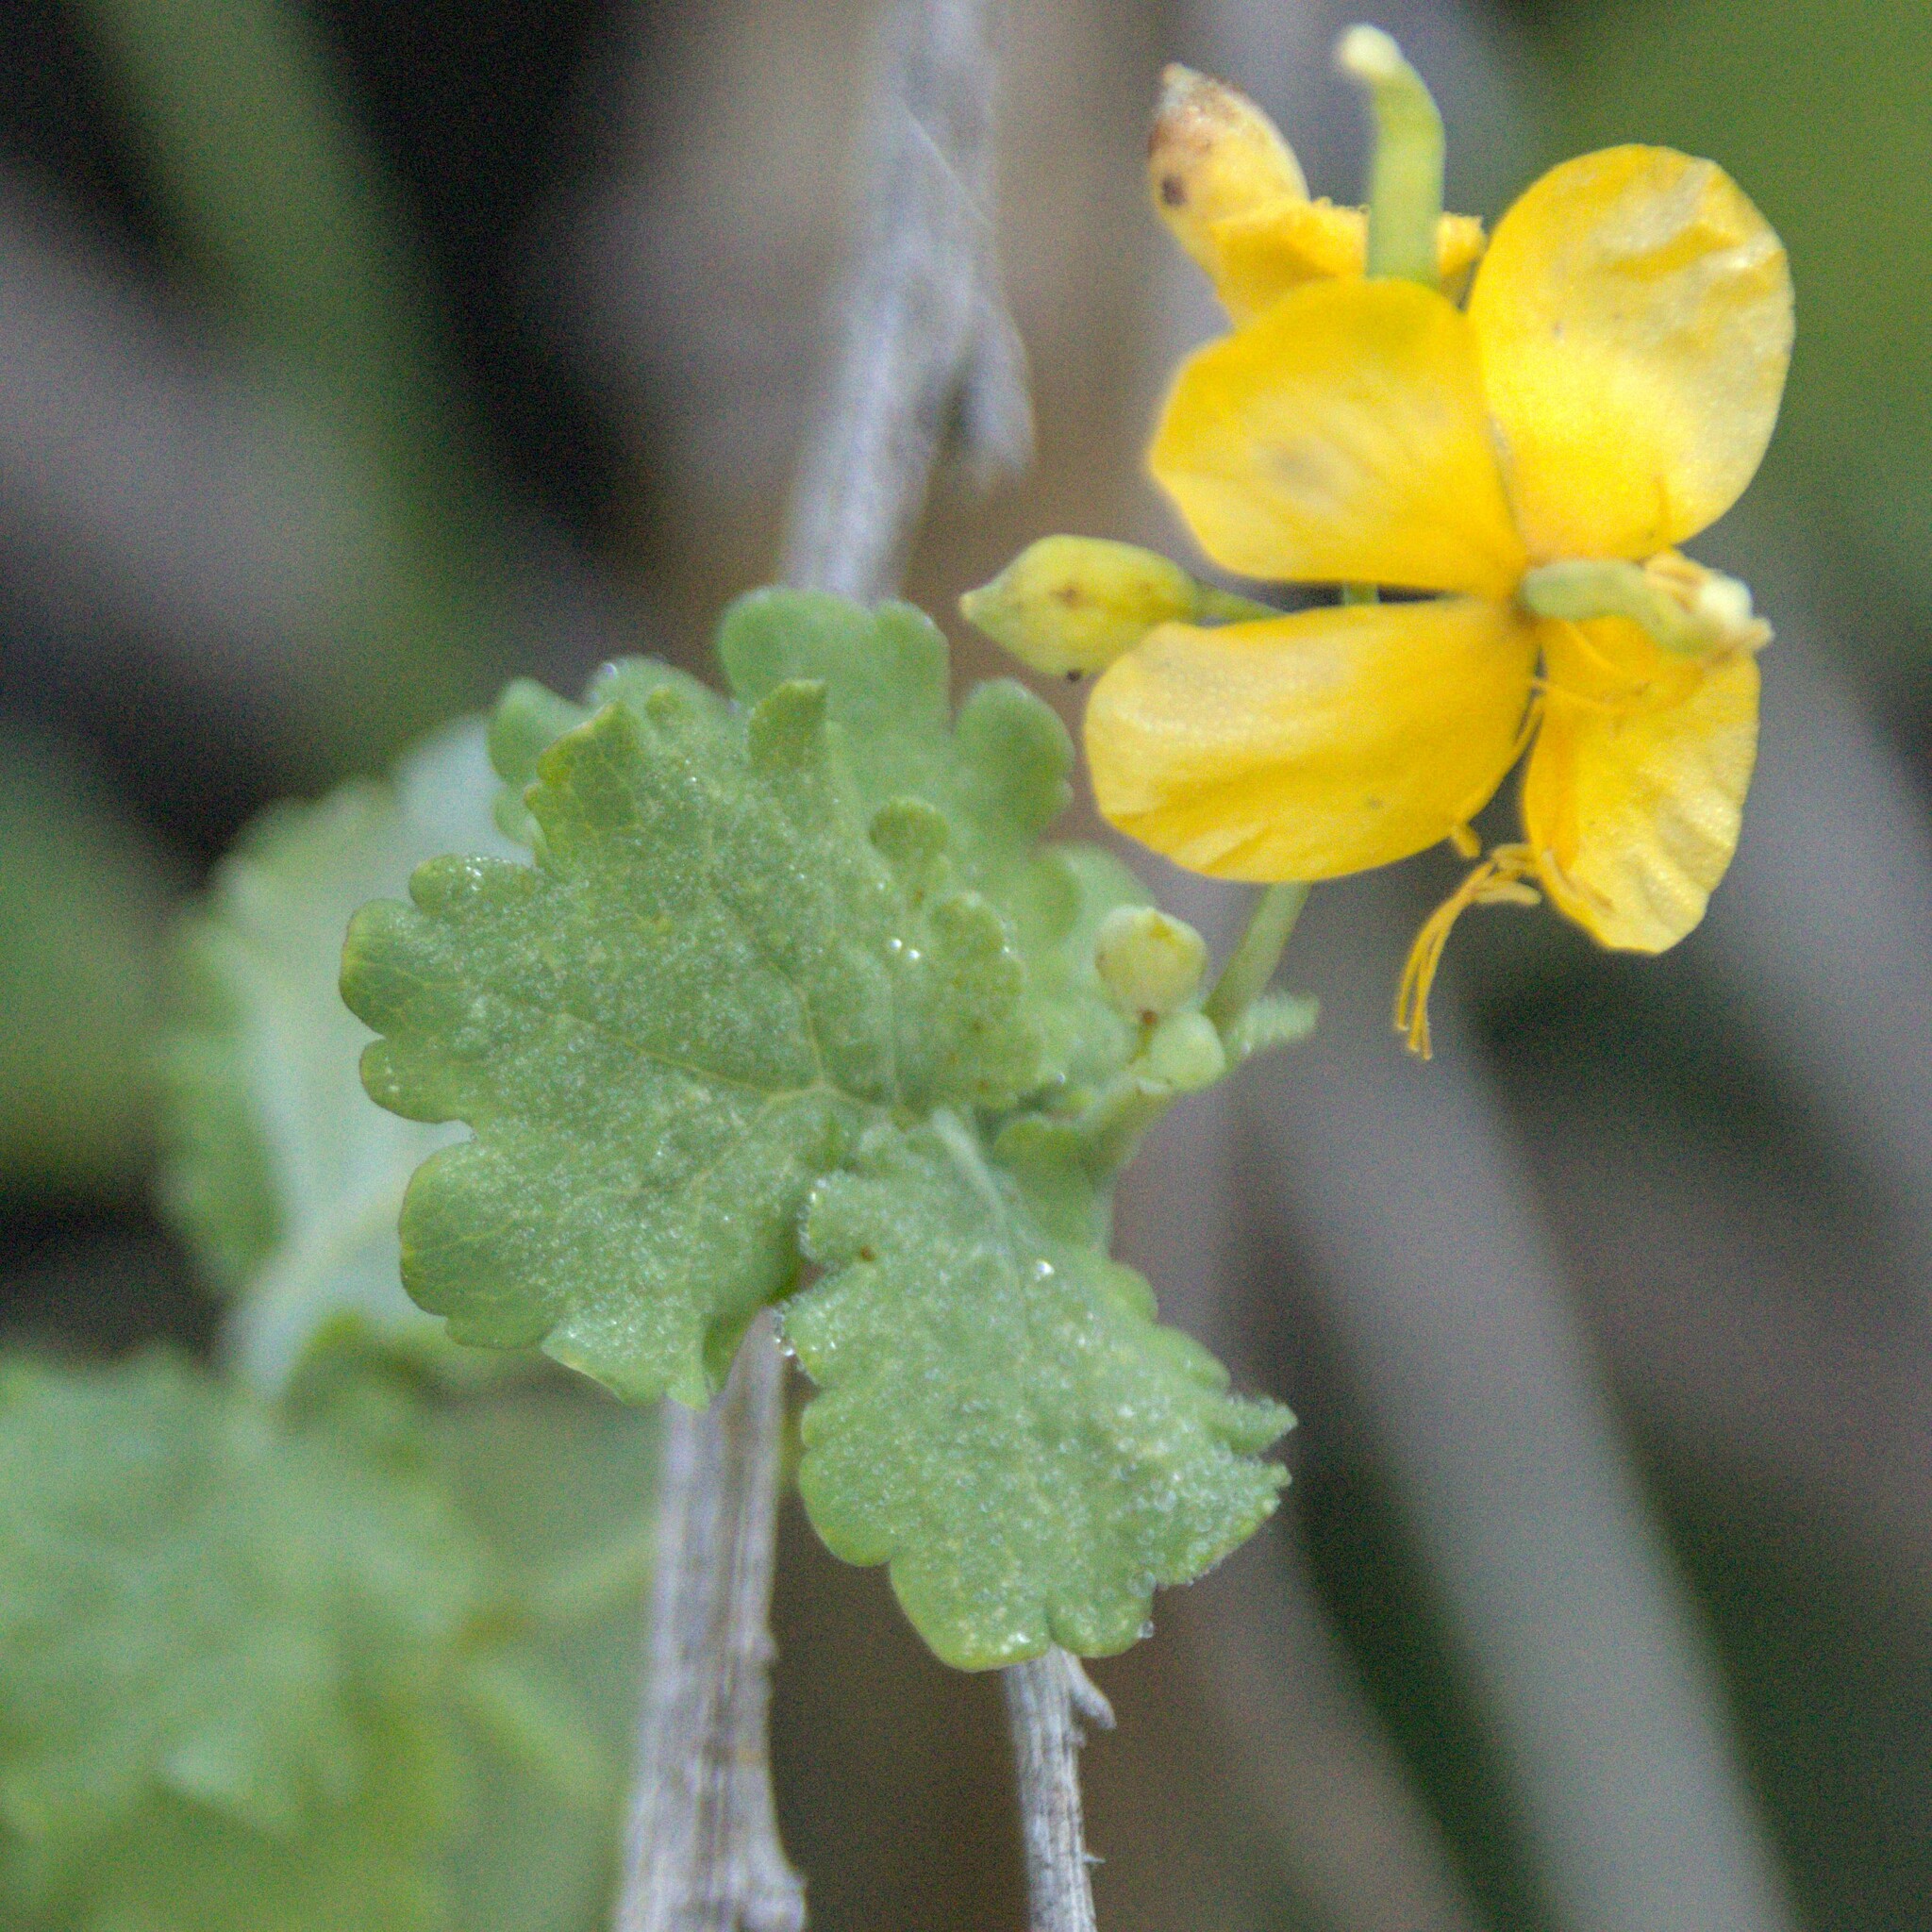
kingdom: Plantae
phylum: Tracheophyta
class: Magnoliopsida
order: Ranunculales
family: Papaveraceae
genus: Chelidonium
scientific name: Chelidonium majus
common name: Greater celandine
